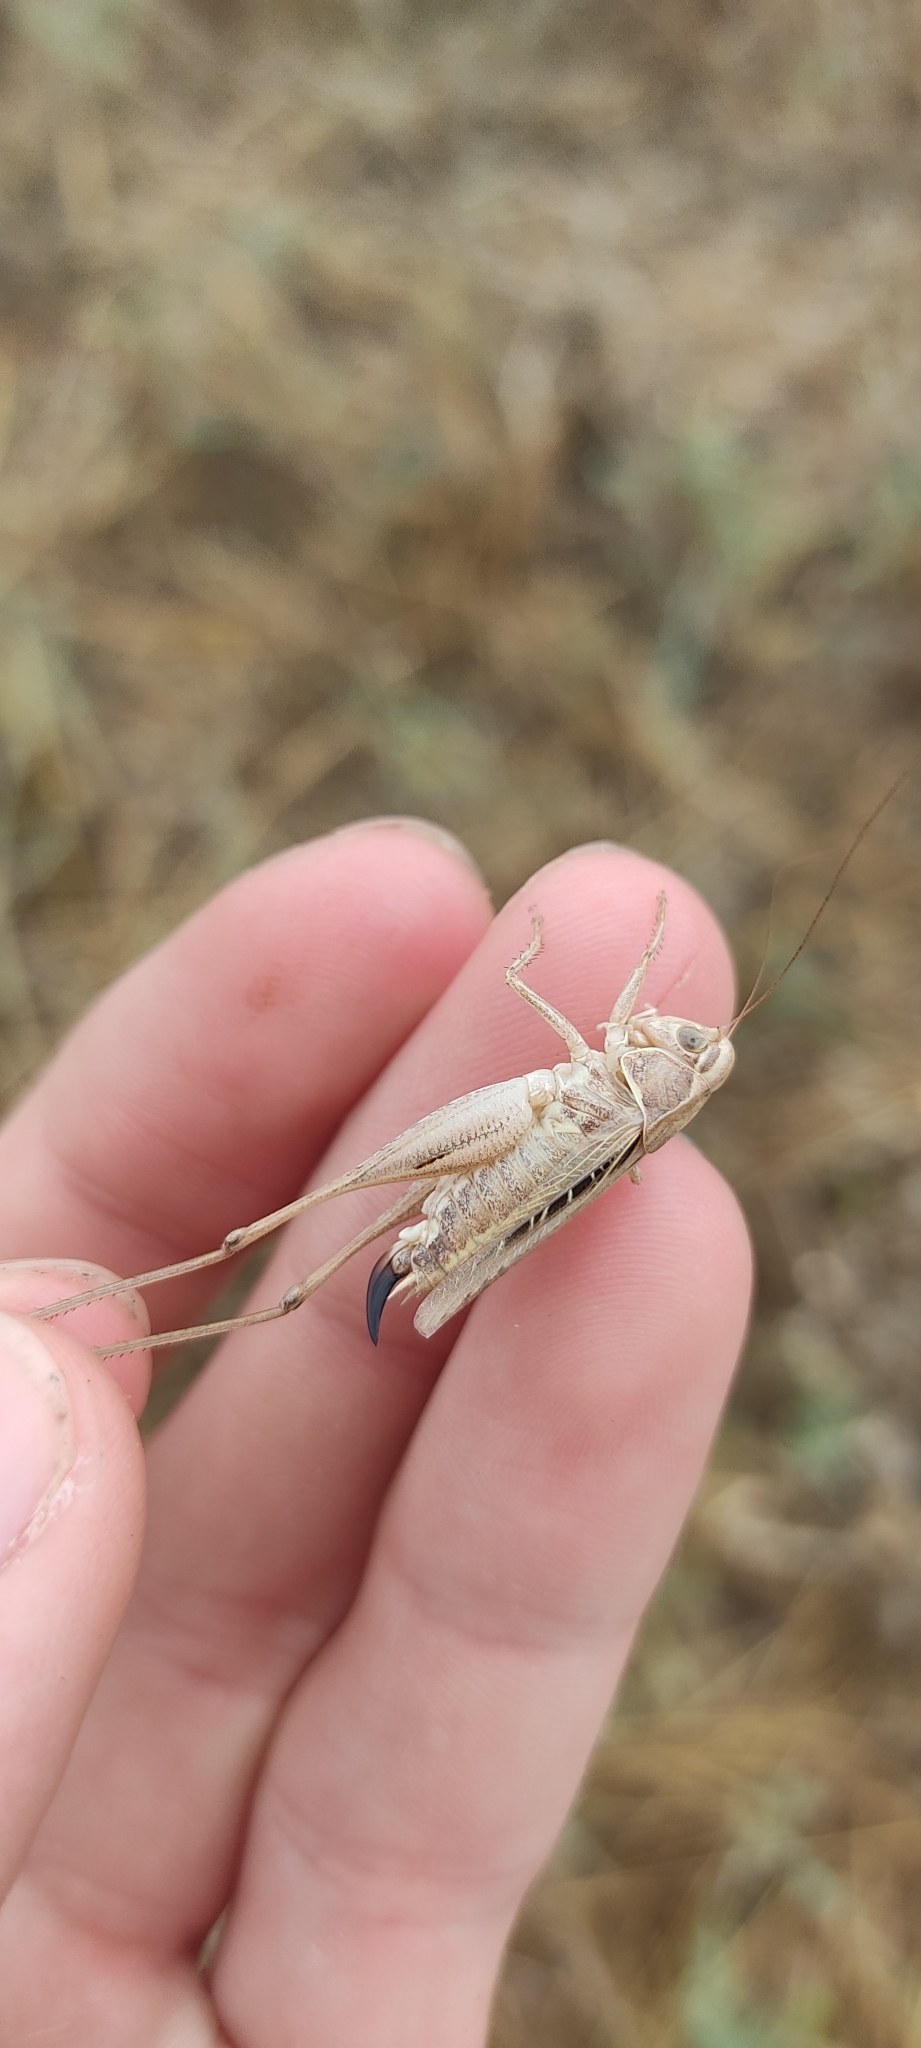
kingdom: Animalia
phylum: Arthropoda
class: Insecta
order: Orthoptera
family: Tettigoniidae
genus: Tessellana
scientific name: Tessellana tessellata
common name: Grasshopper
